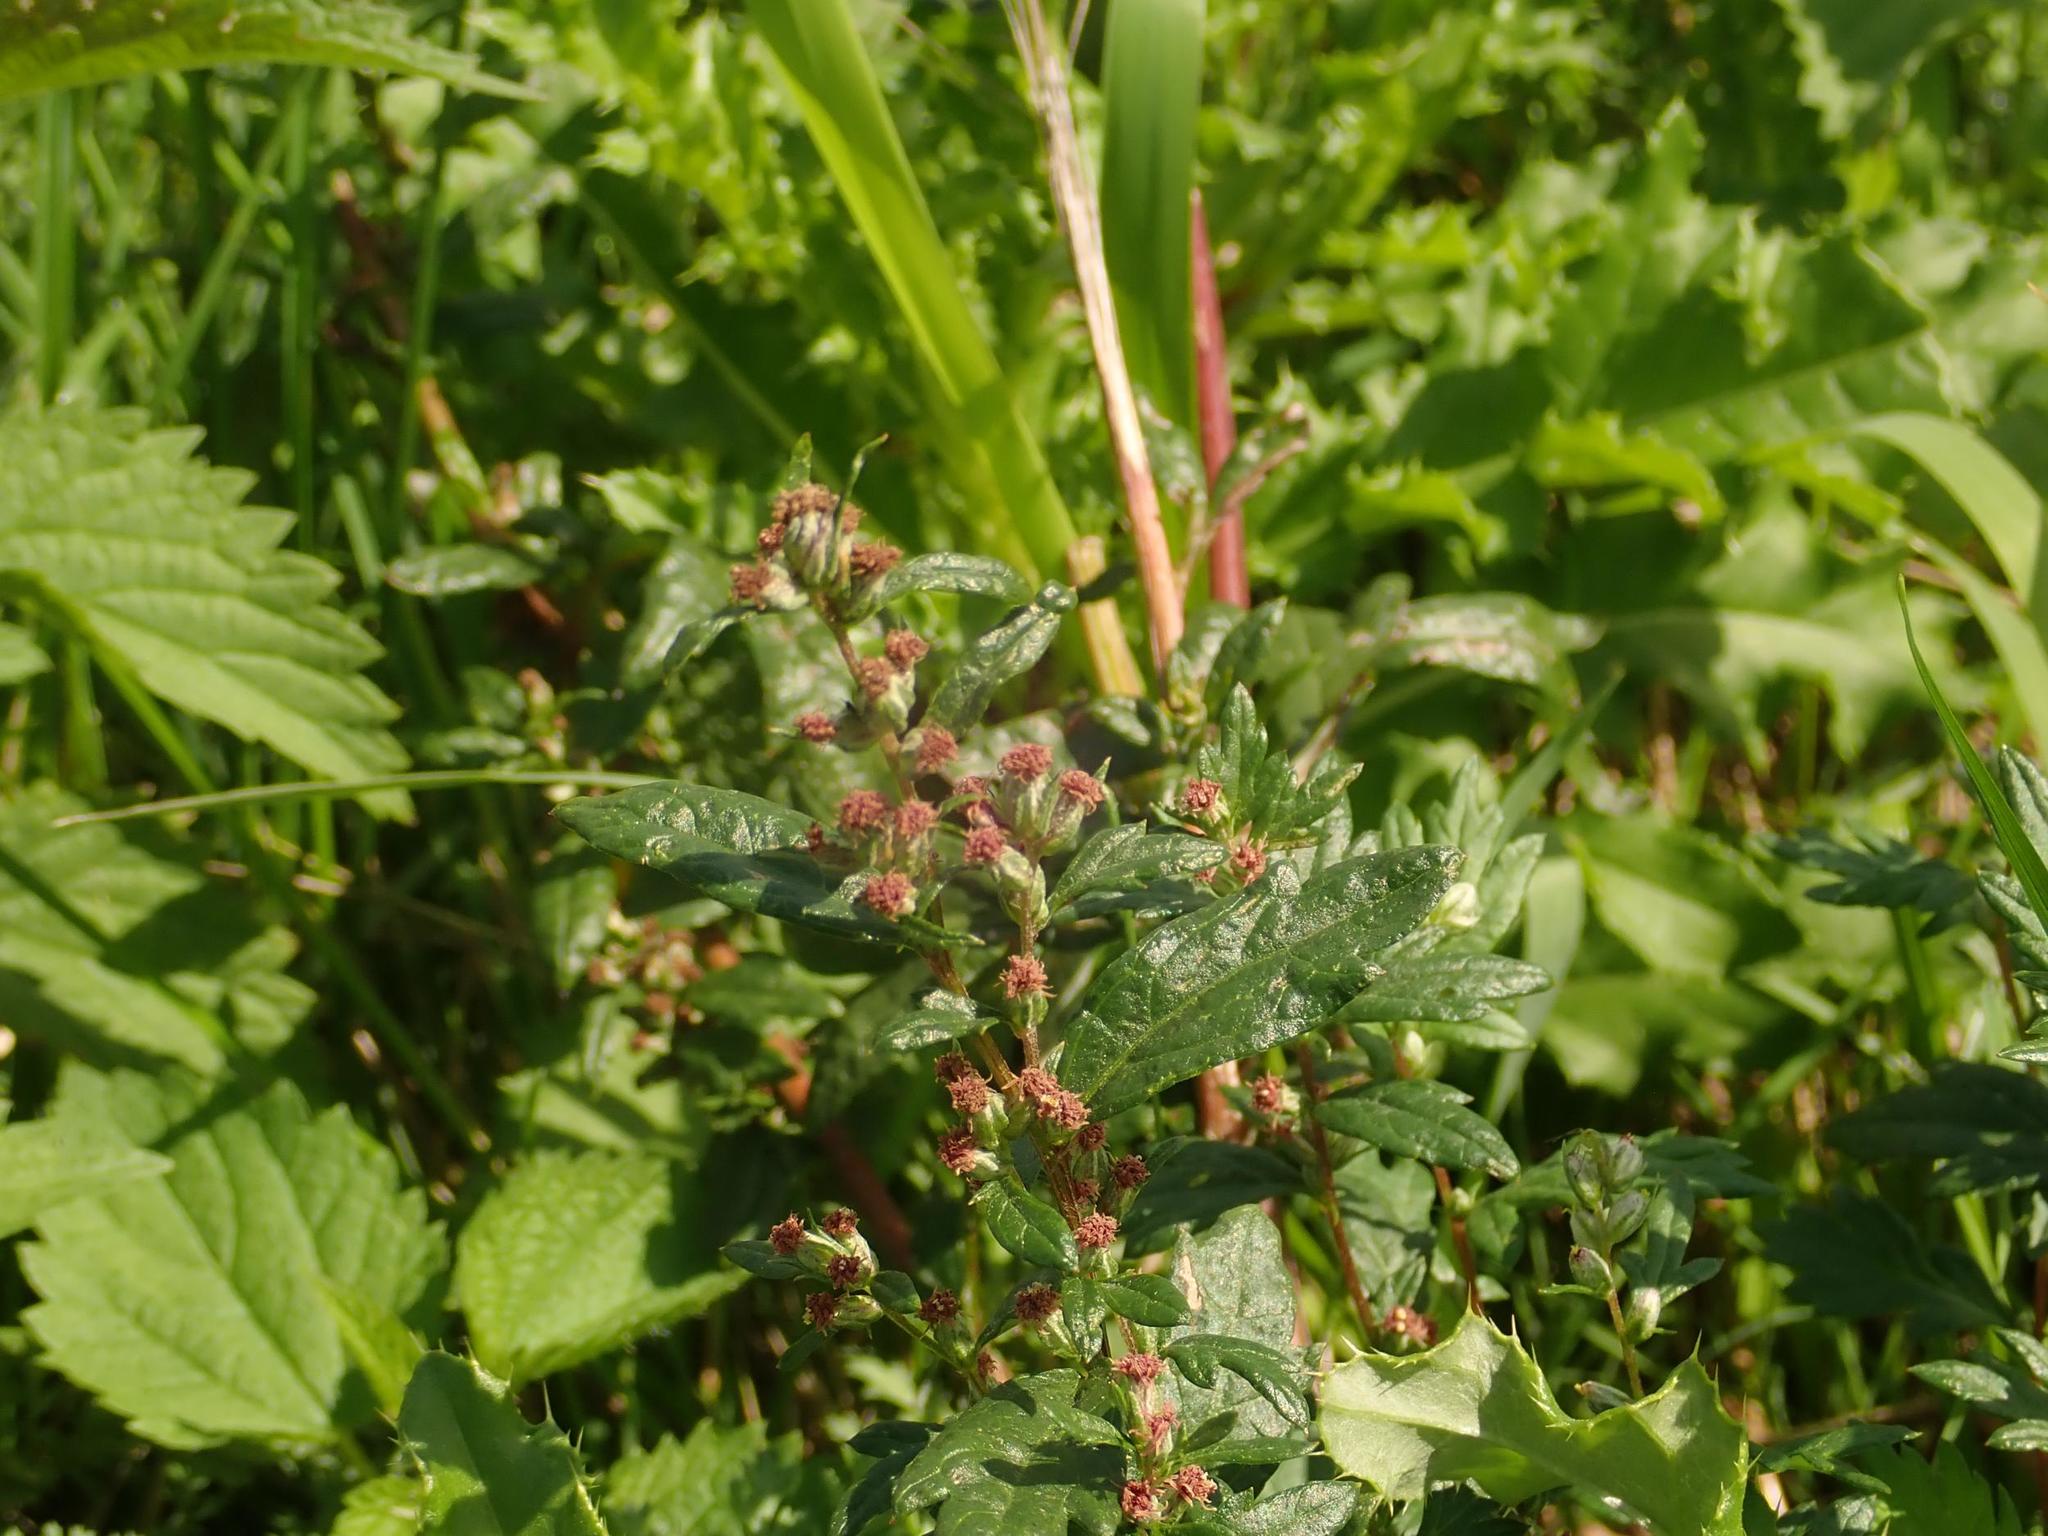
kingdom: Plantae
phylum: Tracheophyta
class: Magnoliopsida
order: Asterales
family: Asteraceae
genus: Artemisia
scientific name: Artemisia vulgaris
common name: Mugwort
